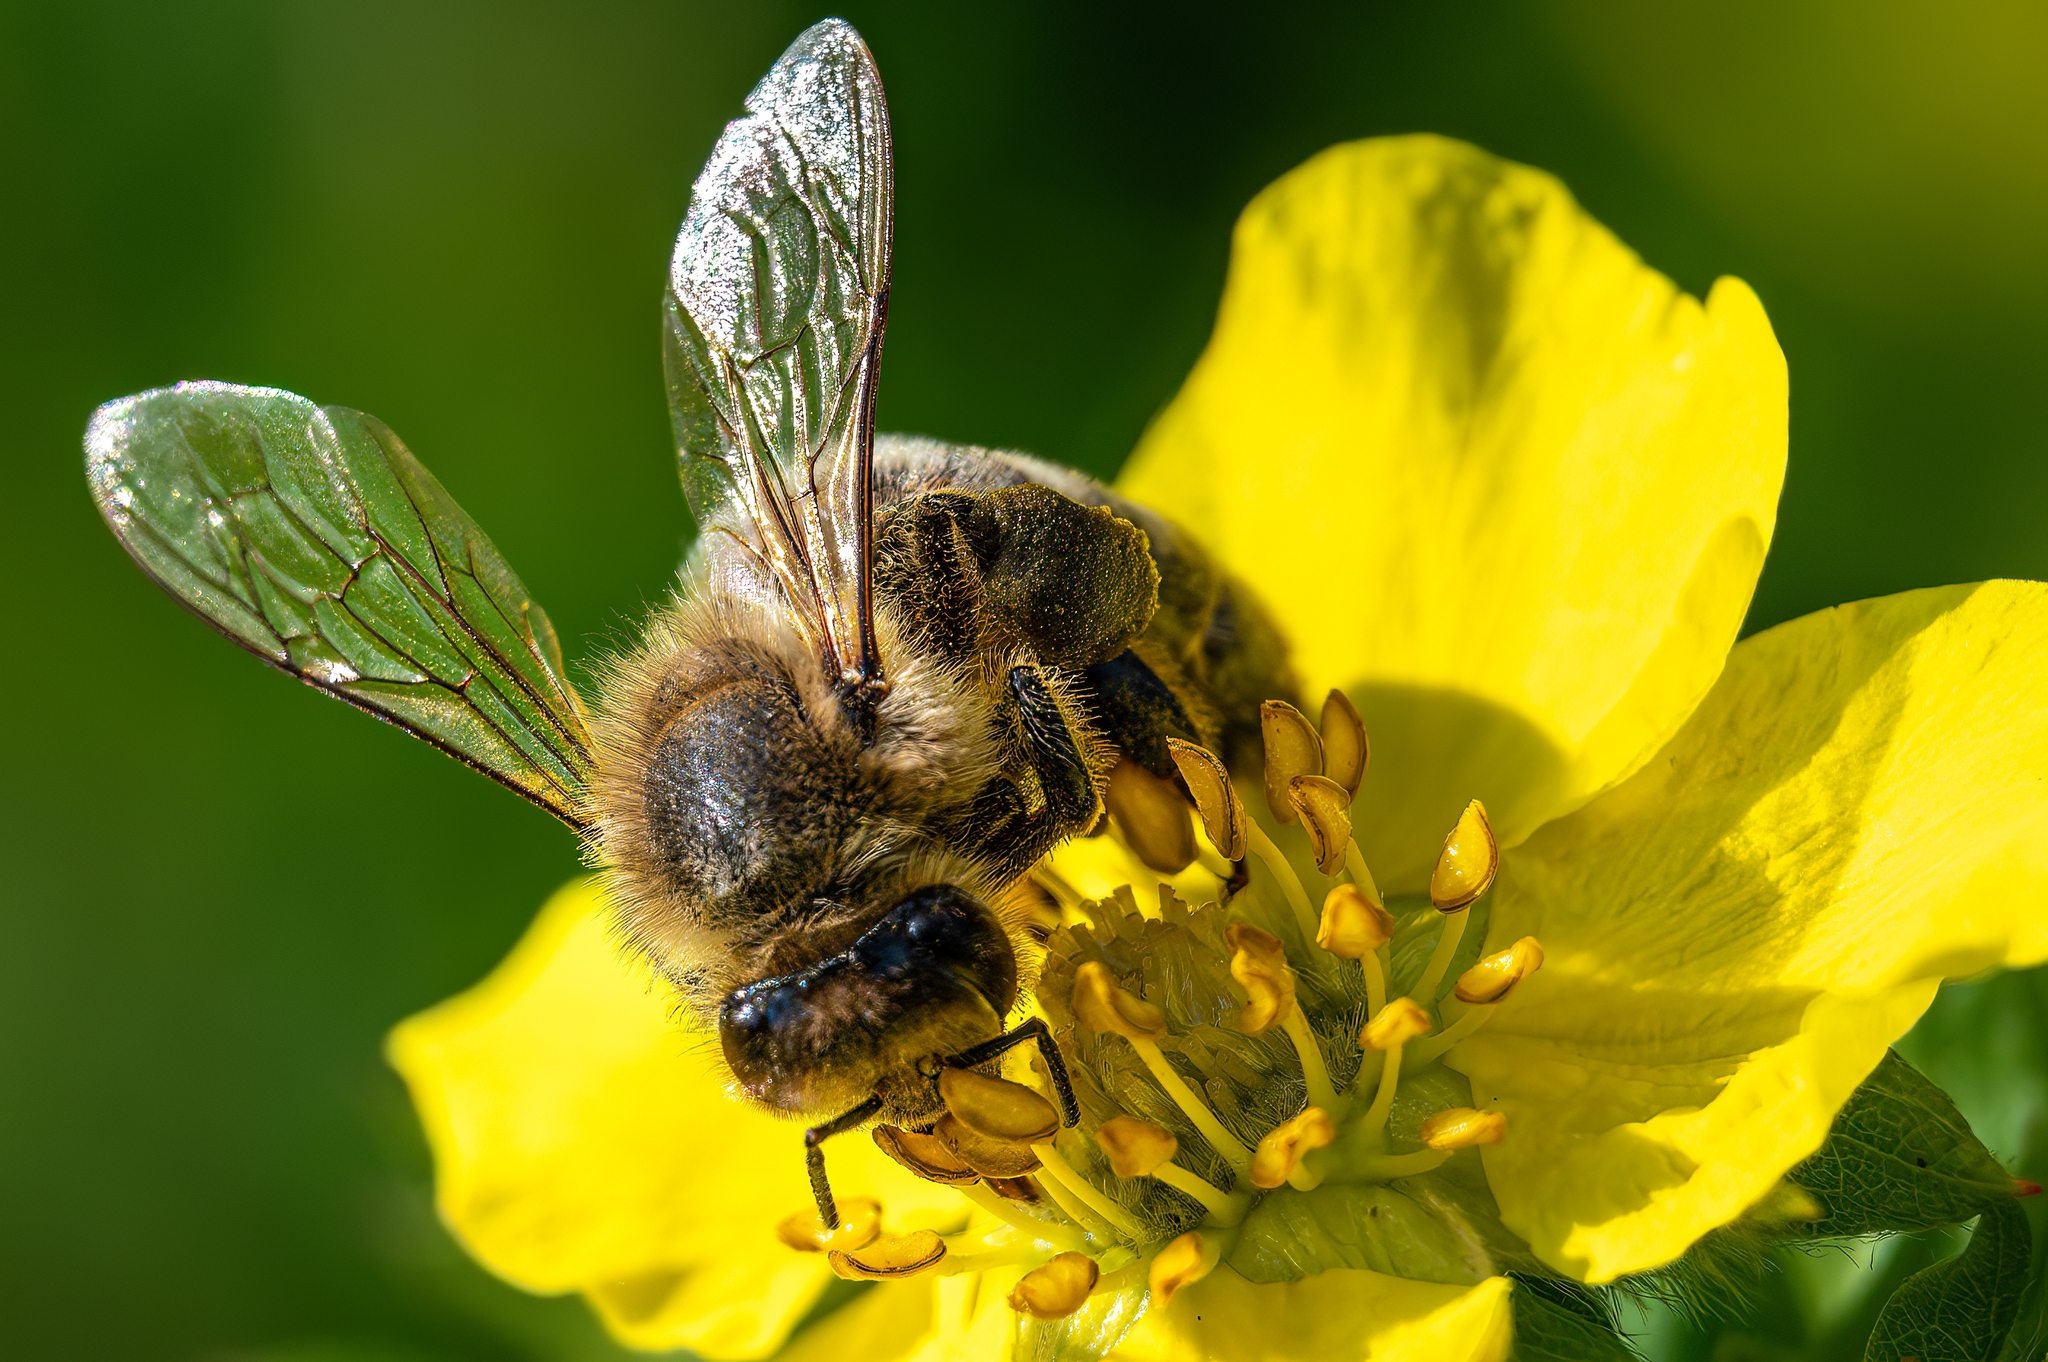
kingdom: Animalia
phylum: Arthropoda
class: Insecta
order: Hymenoptera
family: Apidae
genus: Apis
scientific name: Apis mellifera
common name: Honey bee
